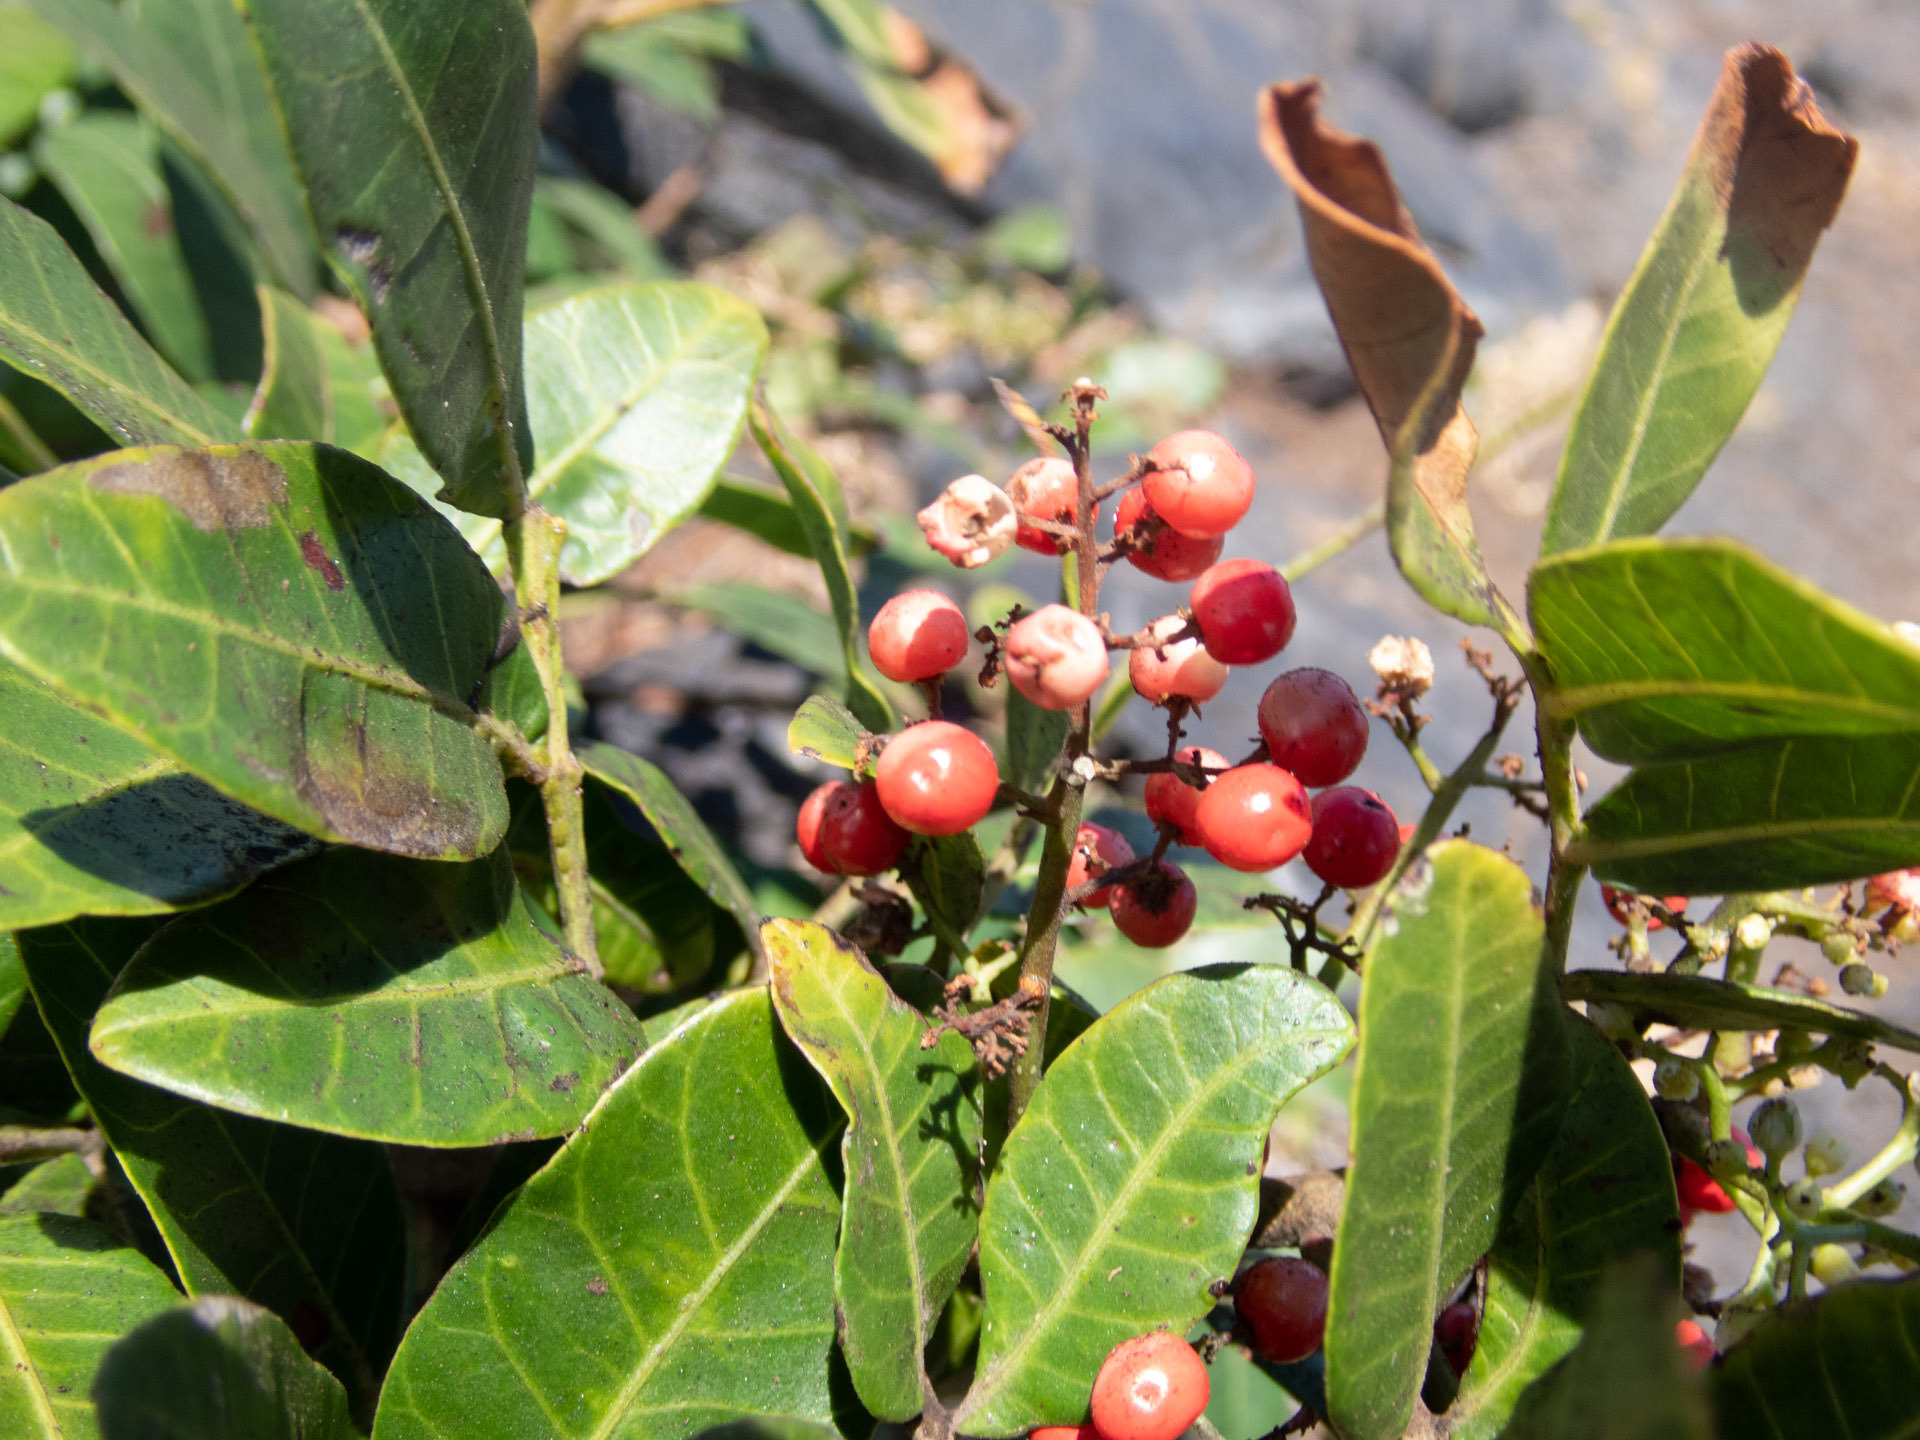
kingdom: Plantae
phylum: Tracheophyta
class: Magnoliopsida
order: Sapindales
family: Anacardiaceae
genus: Schinus
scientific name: Schinus terebinthifolia
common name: Brazilian peppertree
